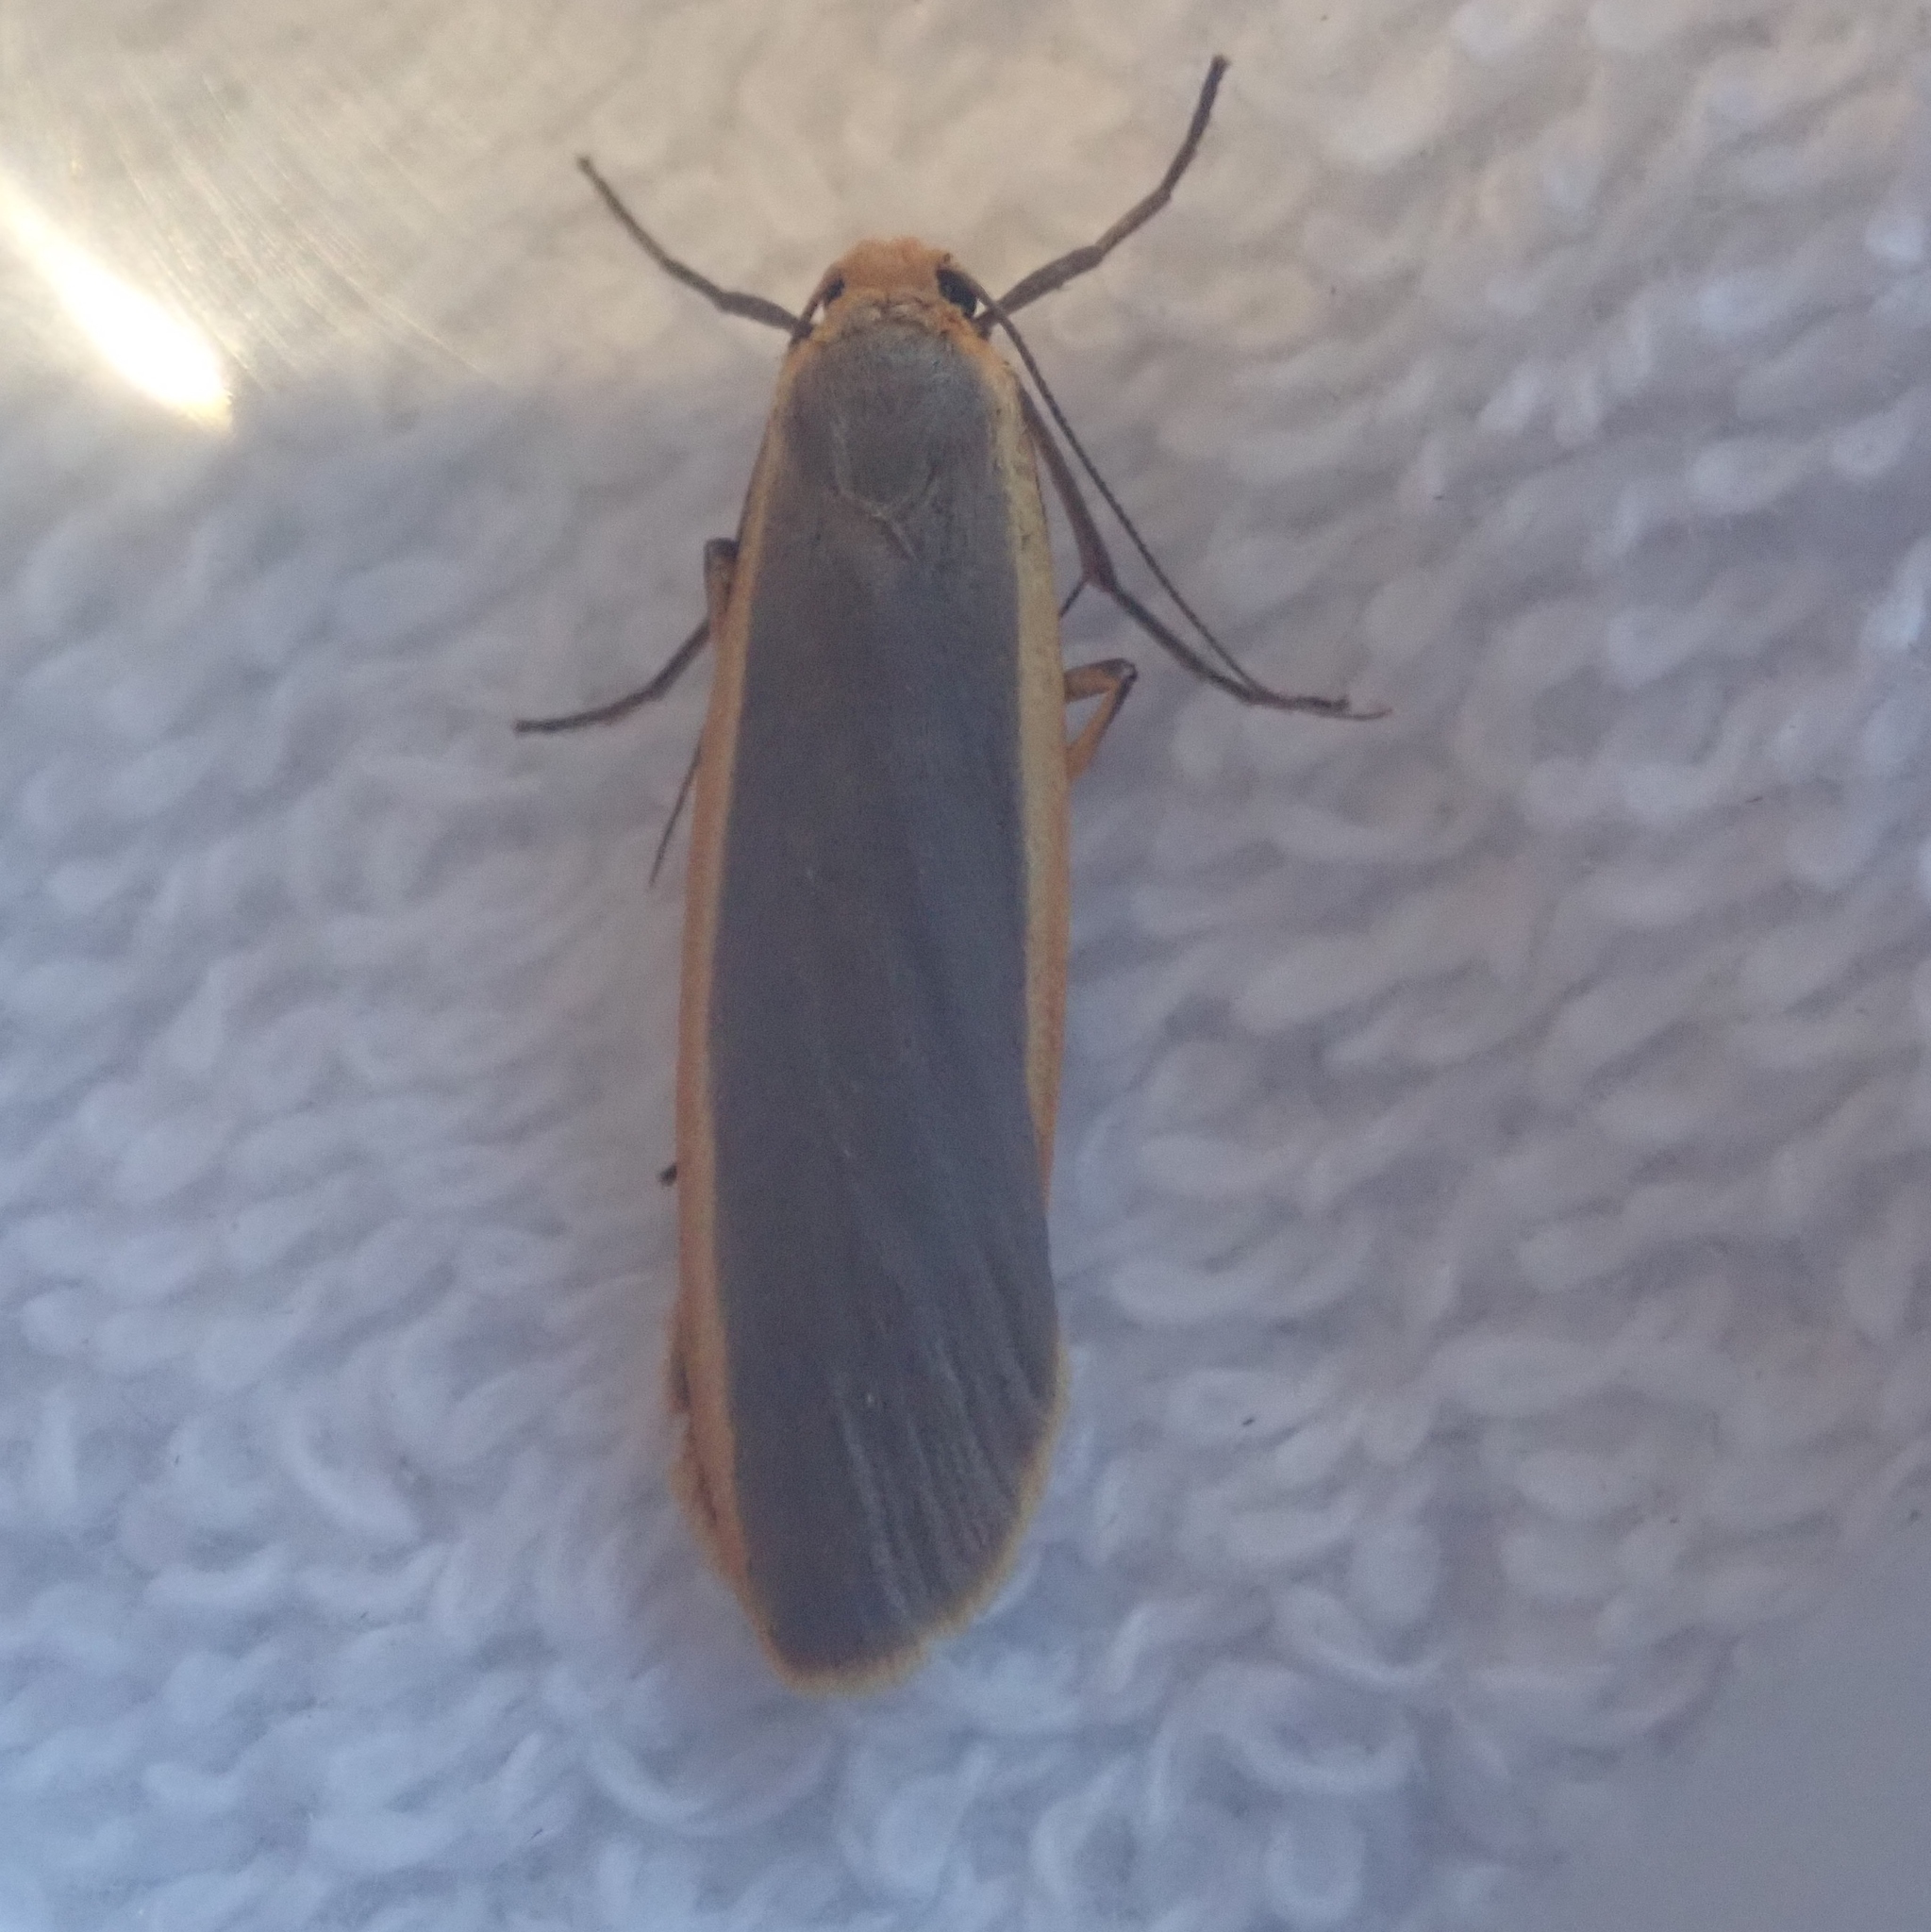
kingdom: Animalia
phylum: Arthropoda
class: Insecta
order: Lepidoptera
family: Erebidae
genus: Nyea
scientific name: Nyea lurideola
